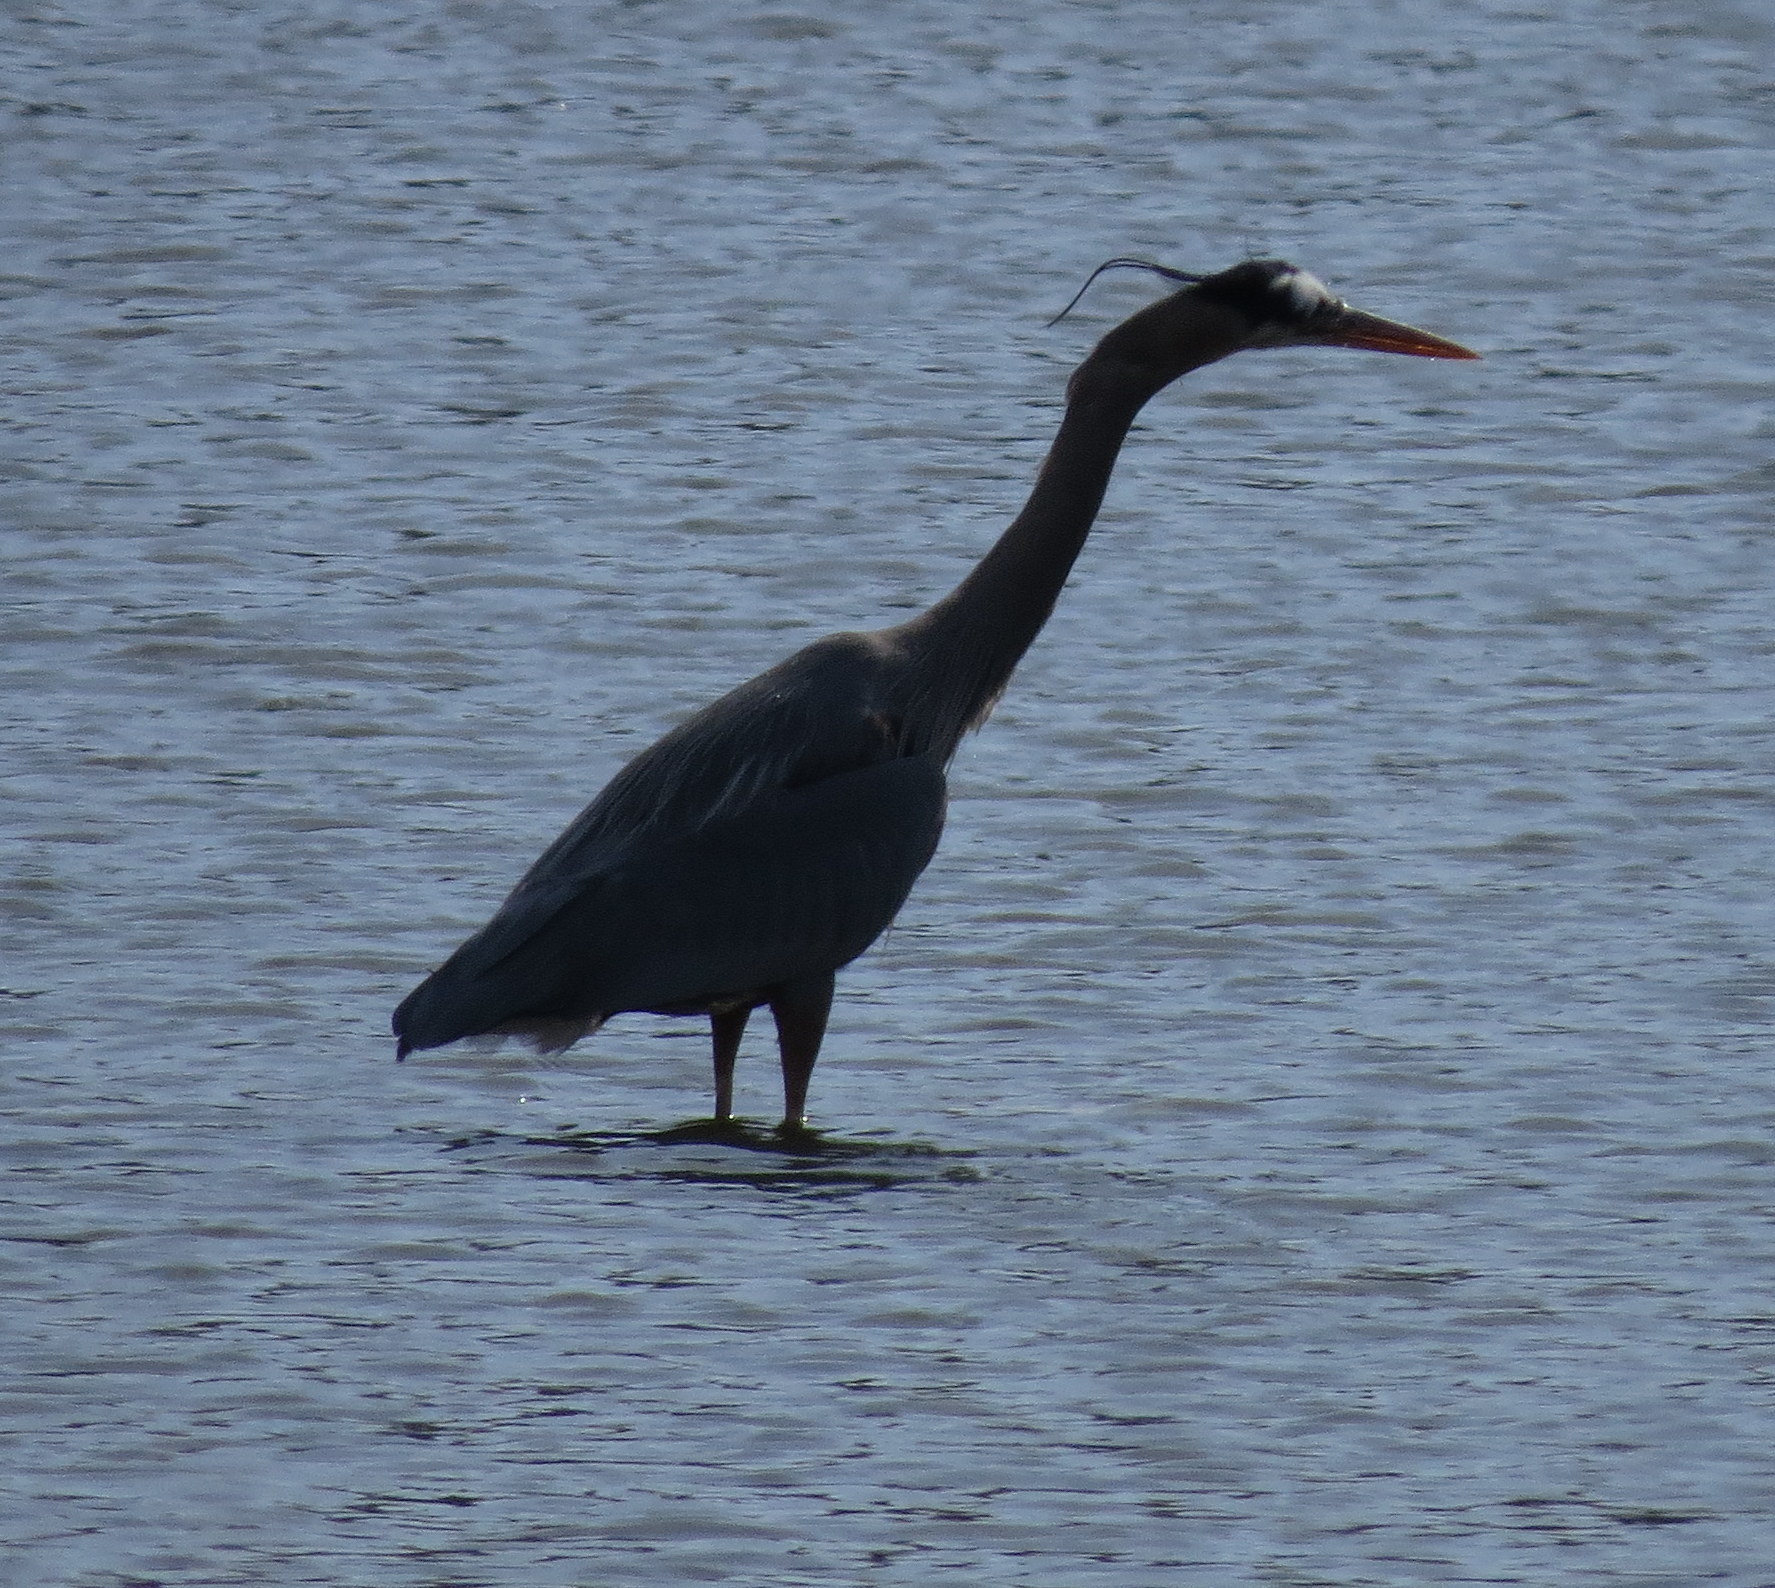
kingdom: Animalia
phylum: Chordata
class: Aves
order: Pelecaniformes
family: Ardeidae
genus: Ardea
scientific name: Ardea herodias
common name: Great blue heron
